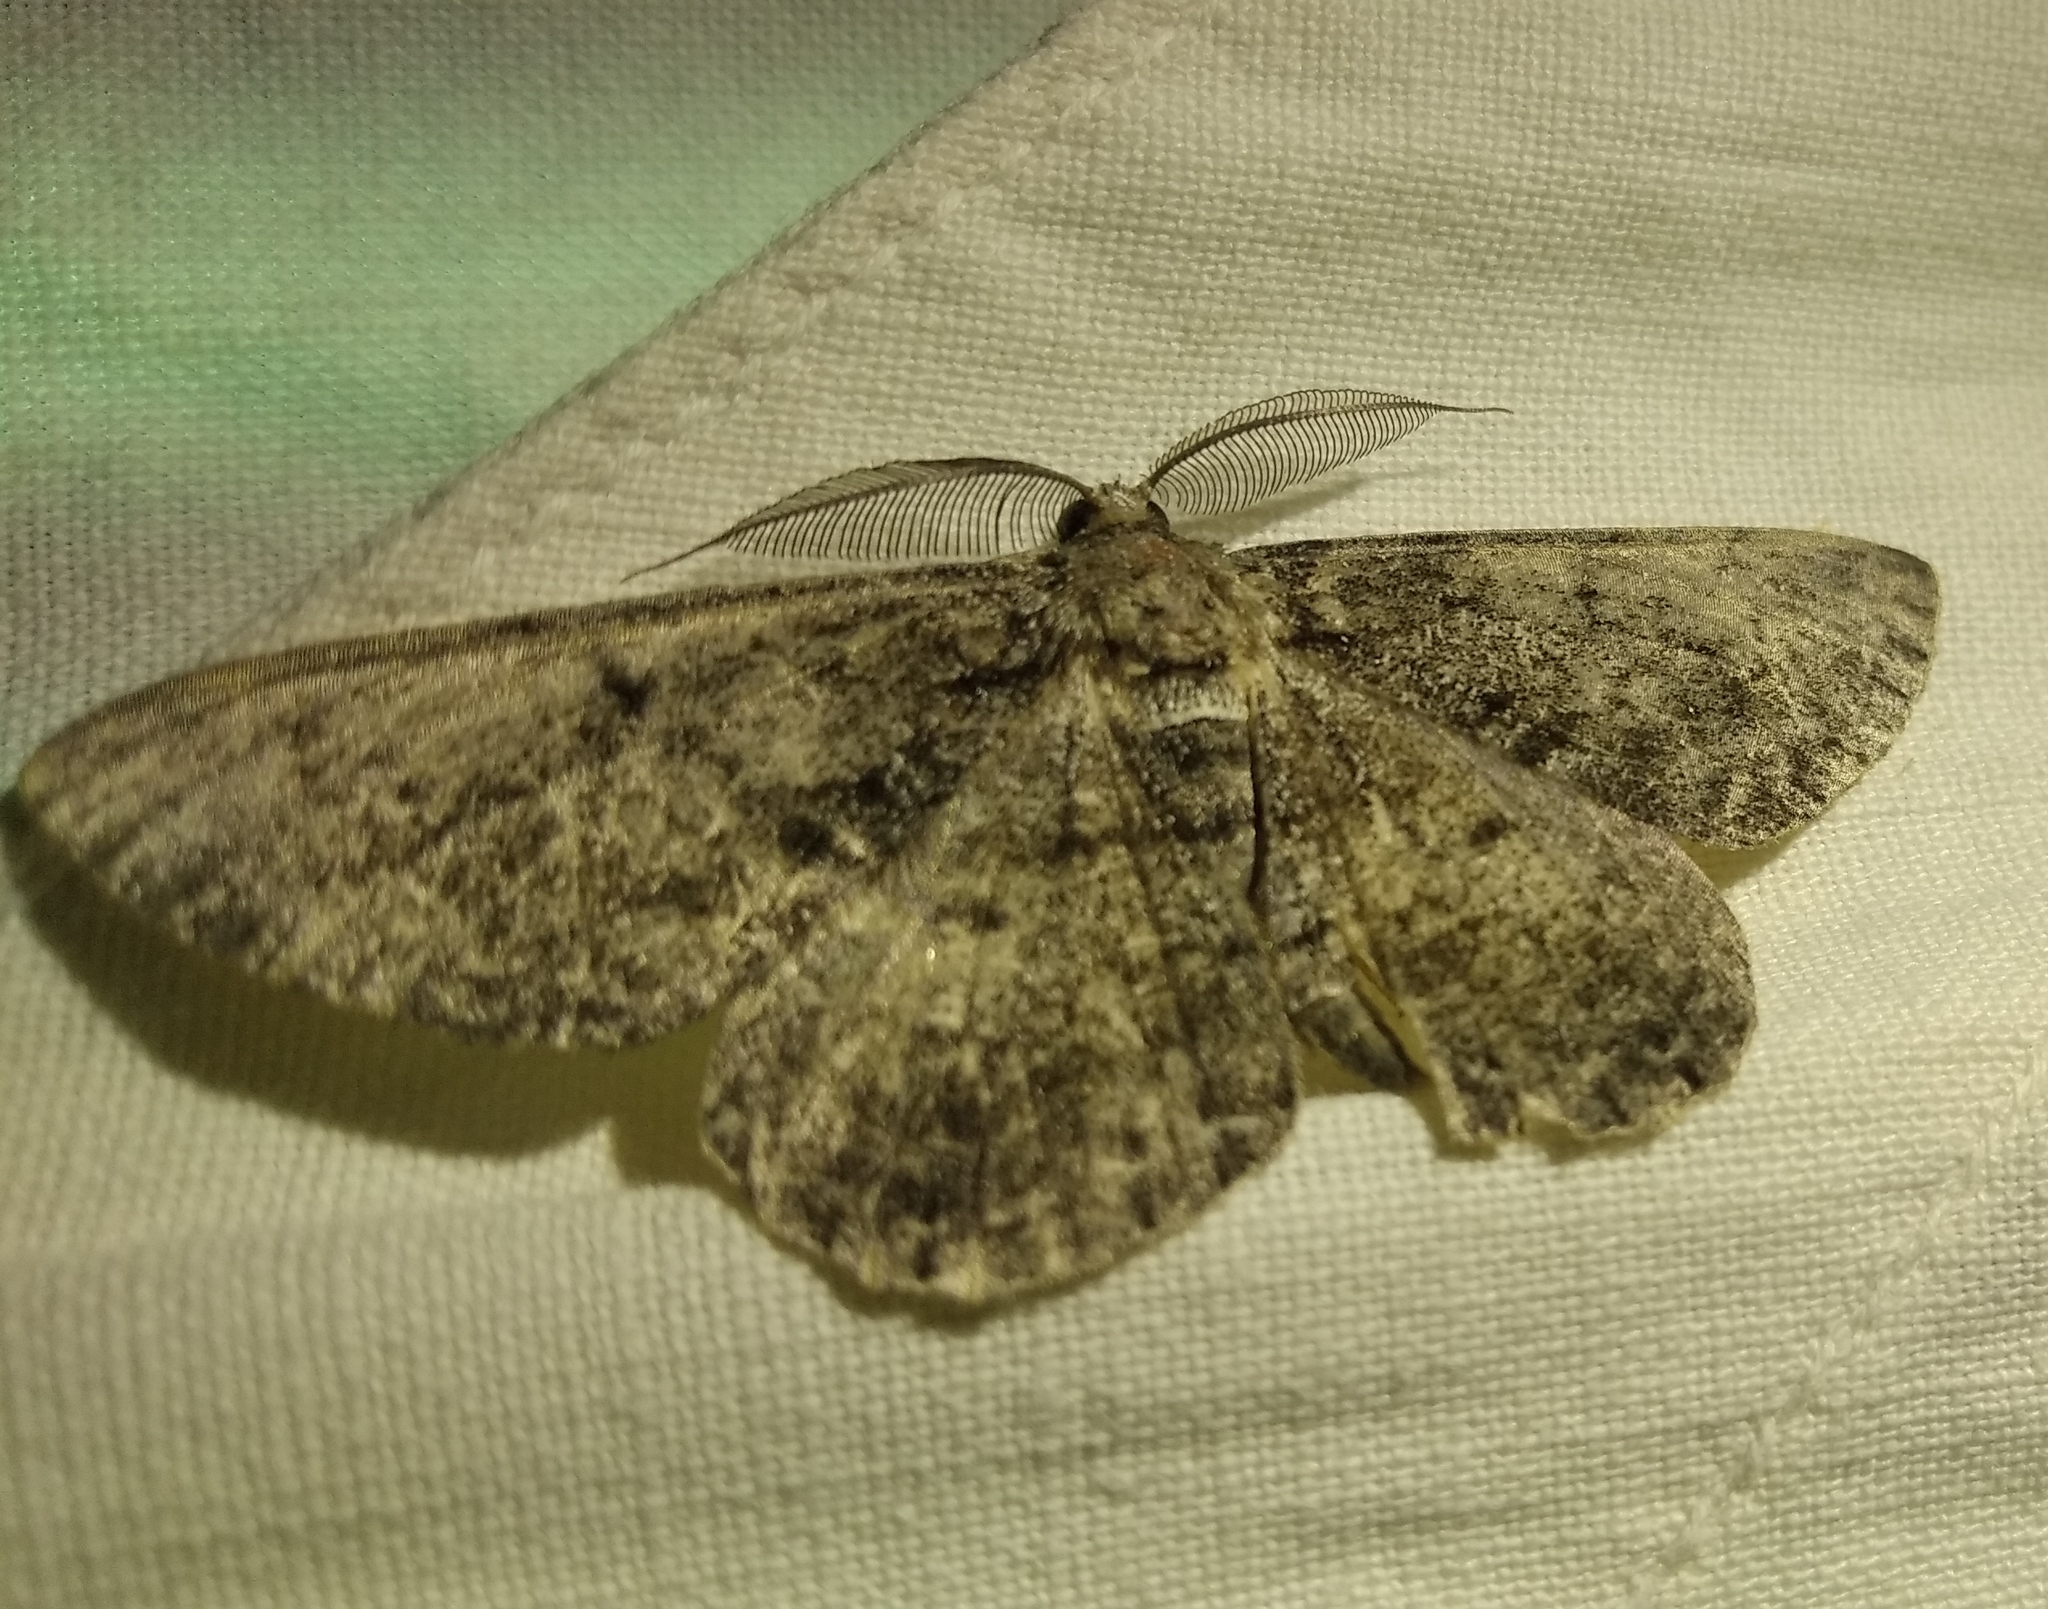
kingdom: Animalia
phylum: Arthropoda
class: Insecta
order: Lepidoptera
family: Geometridae
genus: Hypomecis
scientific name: Hypomecis roboraria
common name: Great oak beauty
